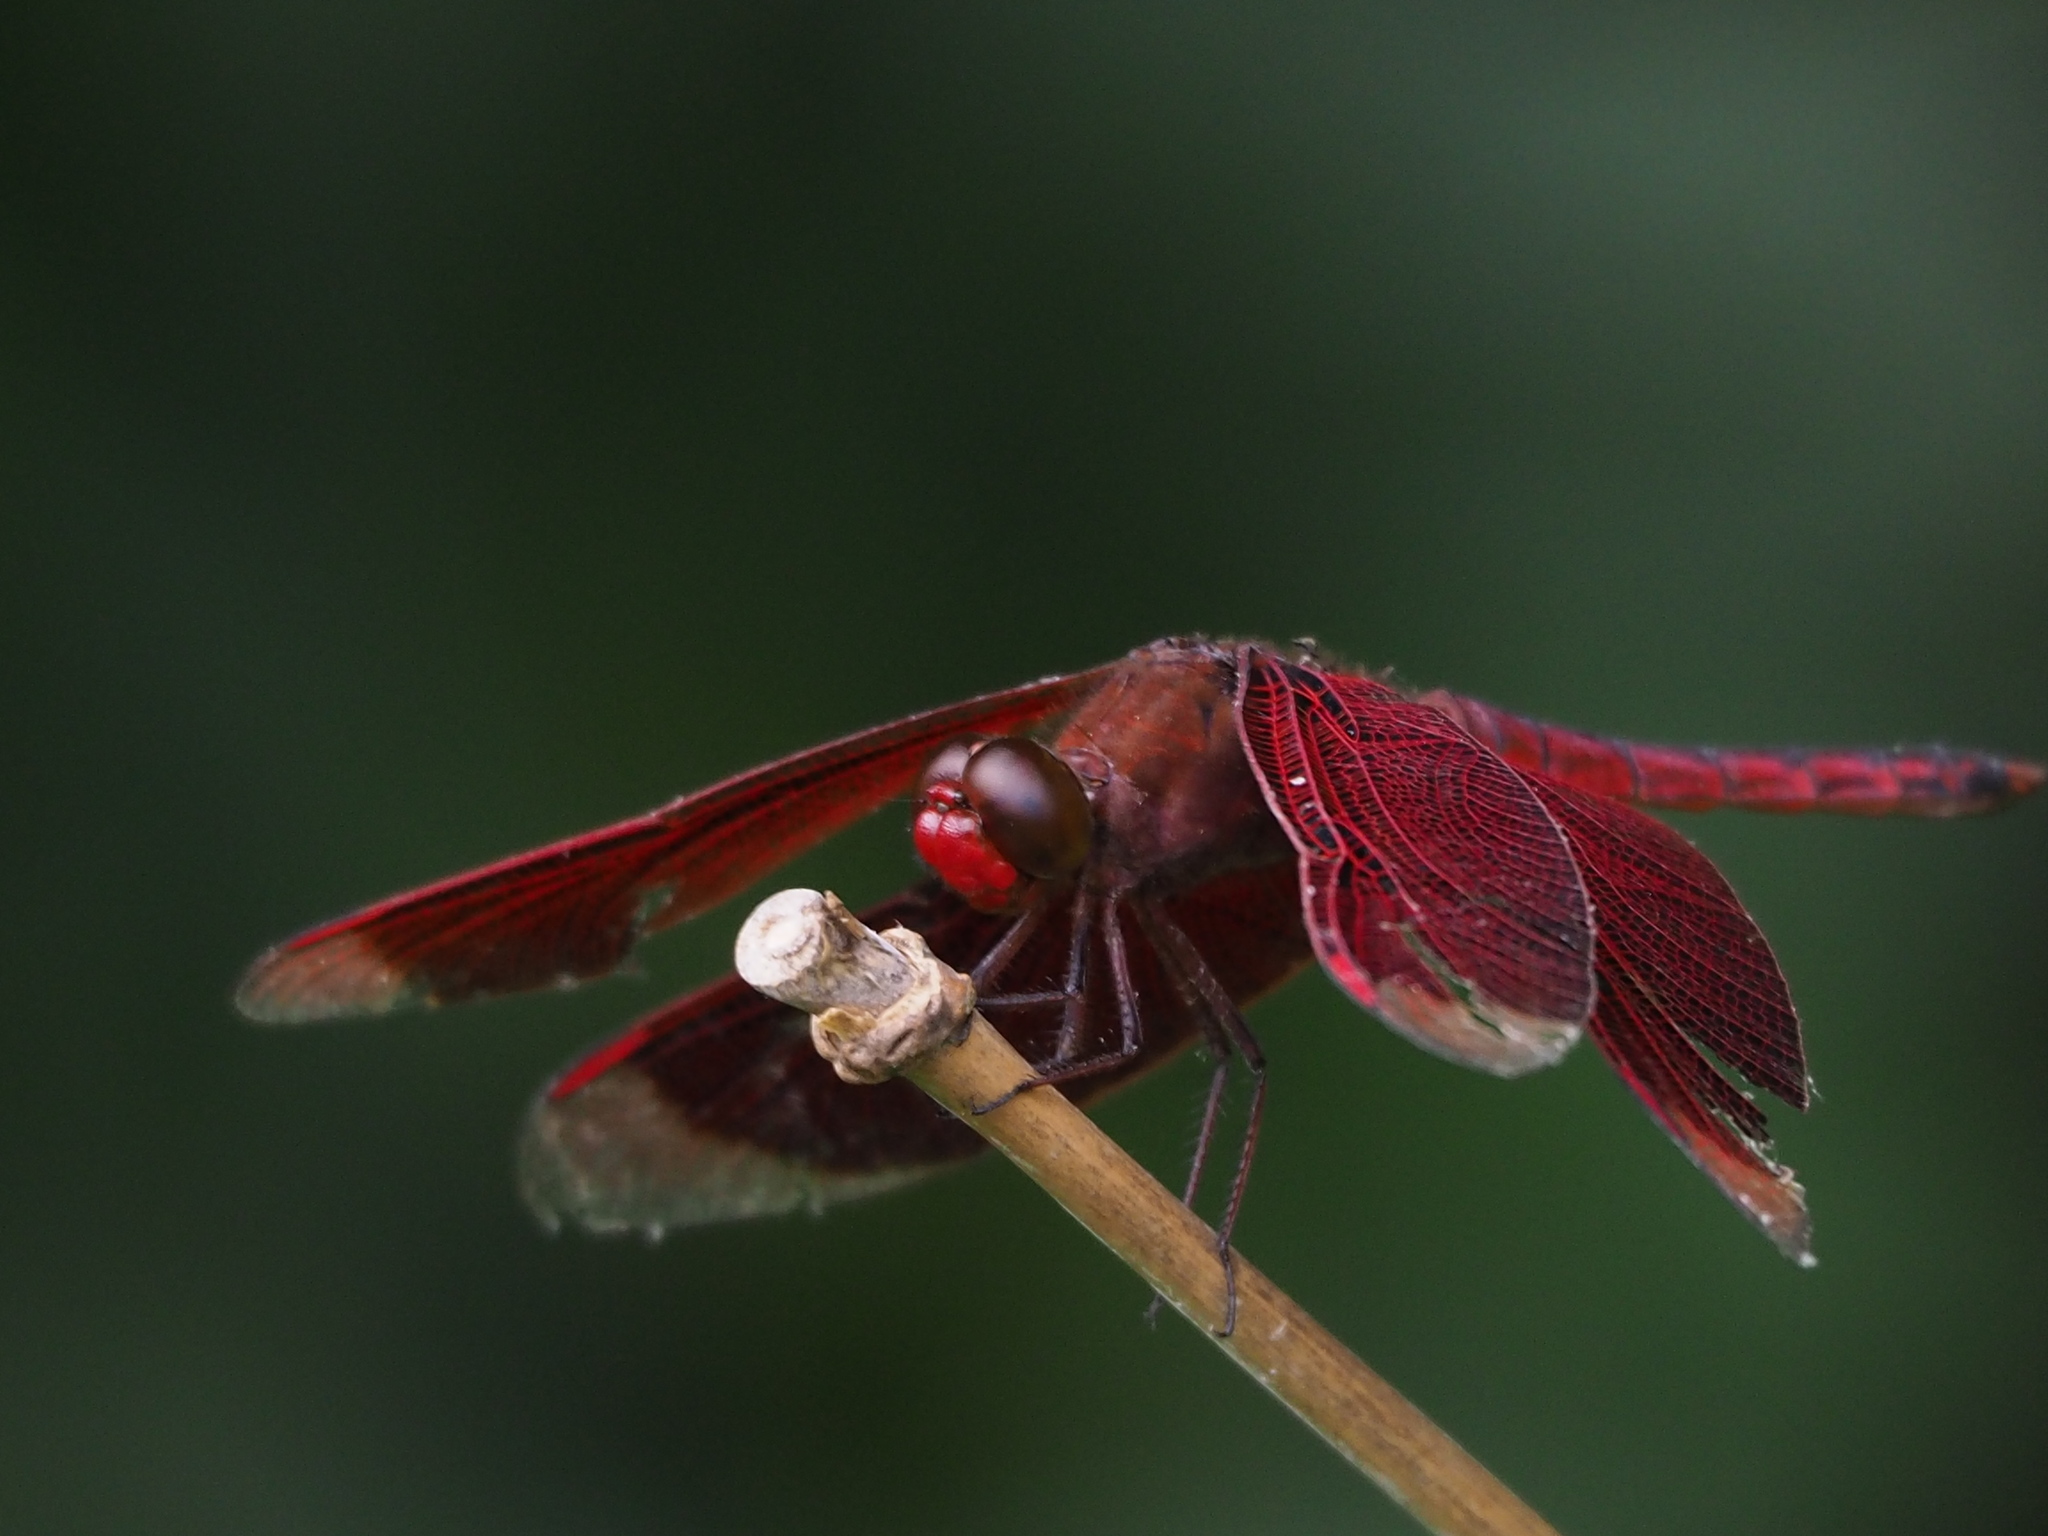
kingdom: Animalia
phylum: Arthropoda
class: Insecta
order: Odonata
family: Libellulidae
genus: Neurothemis
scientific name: Neurothemis taiwanensis
